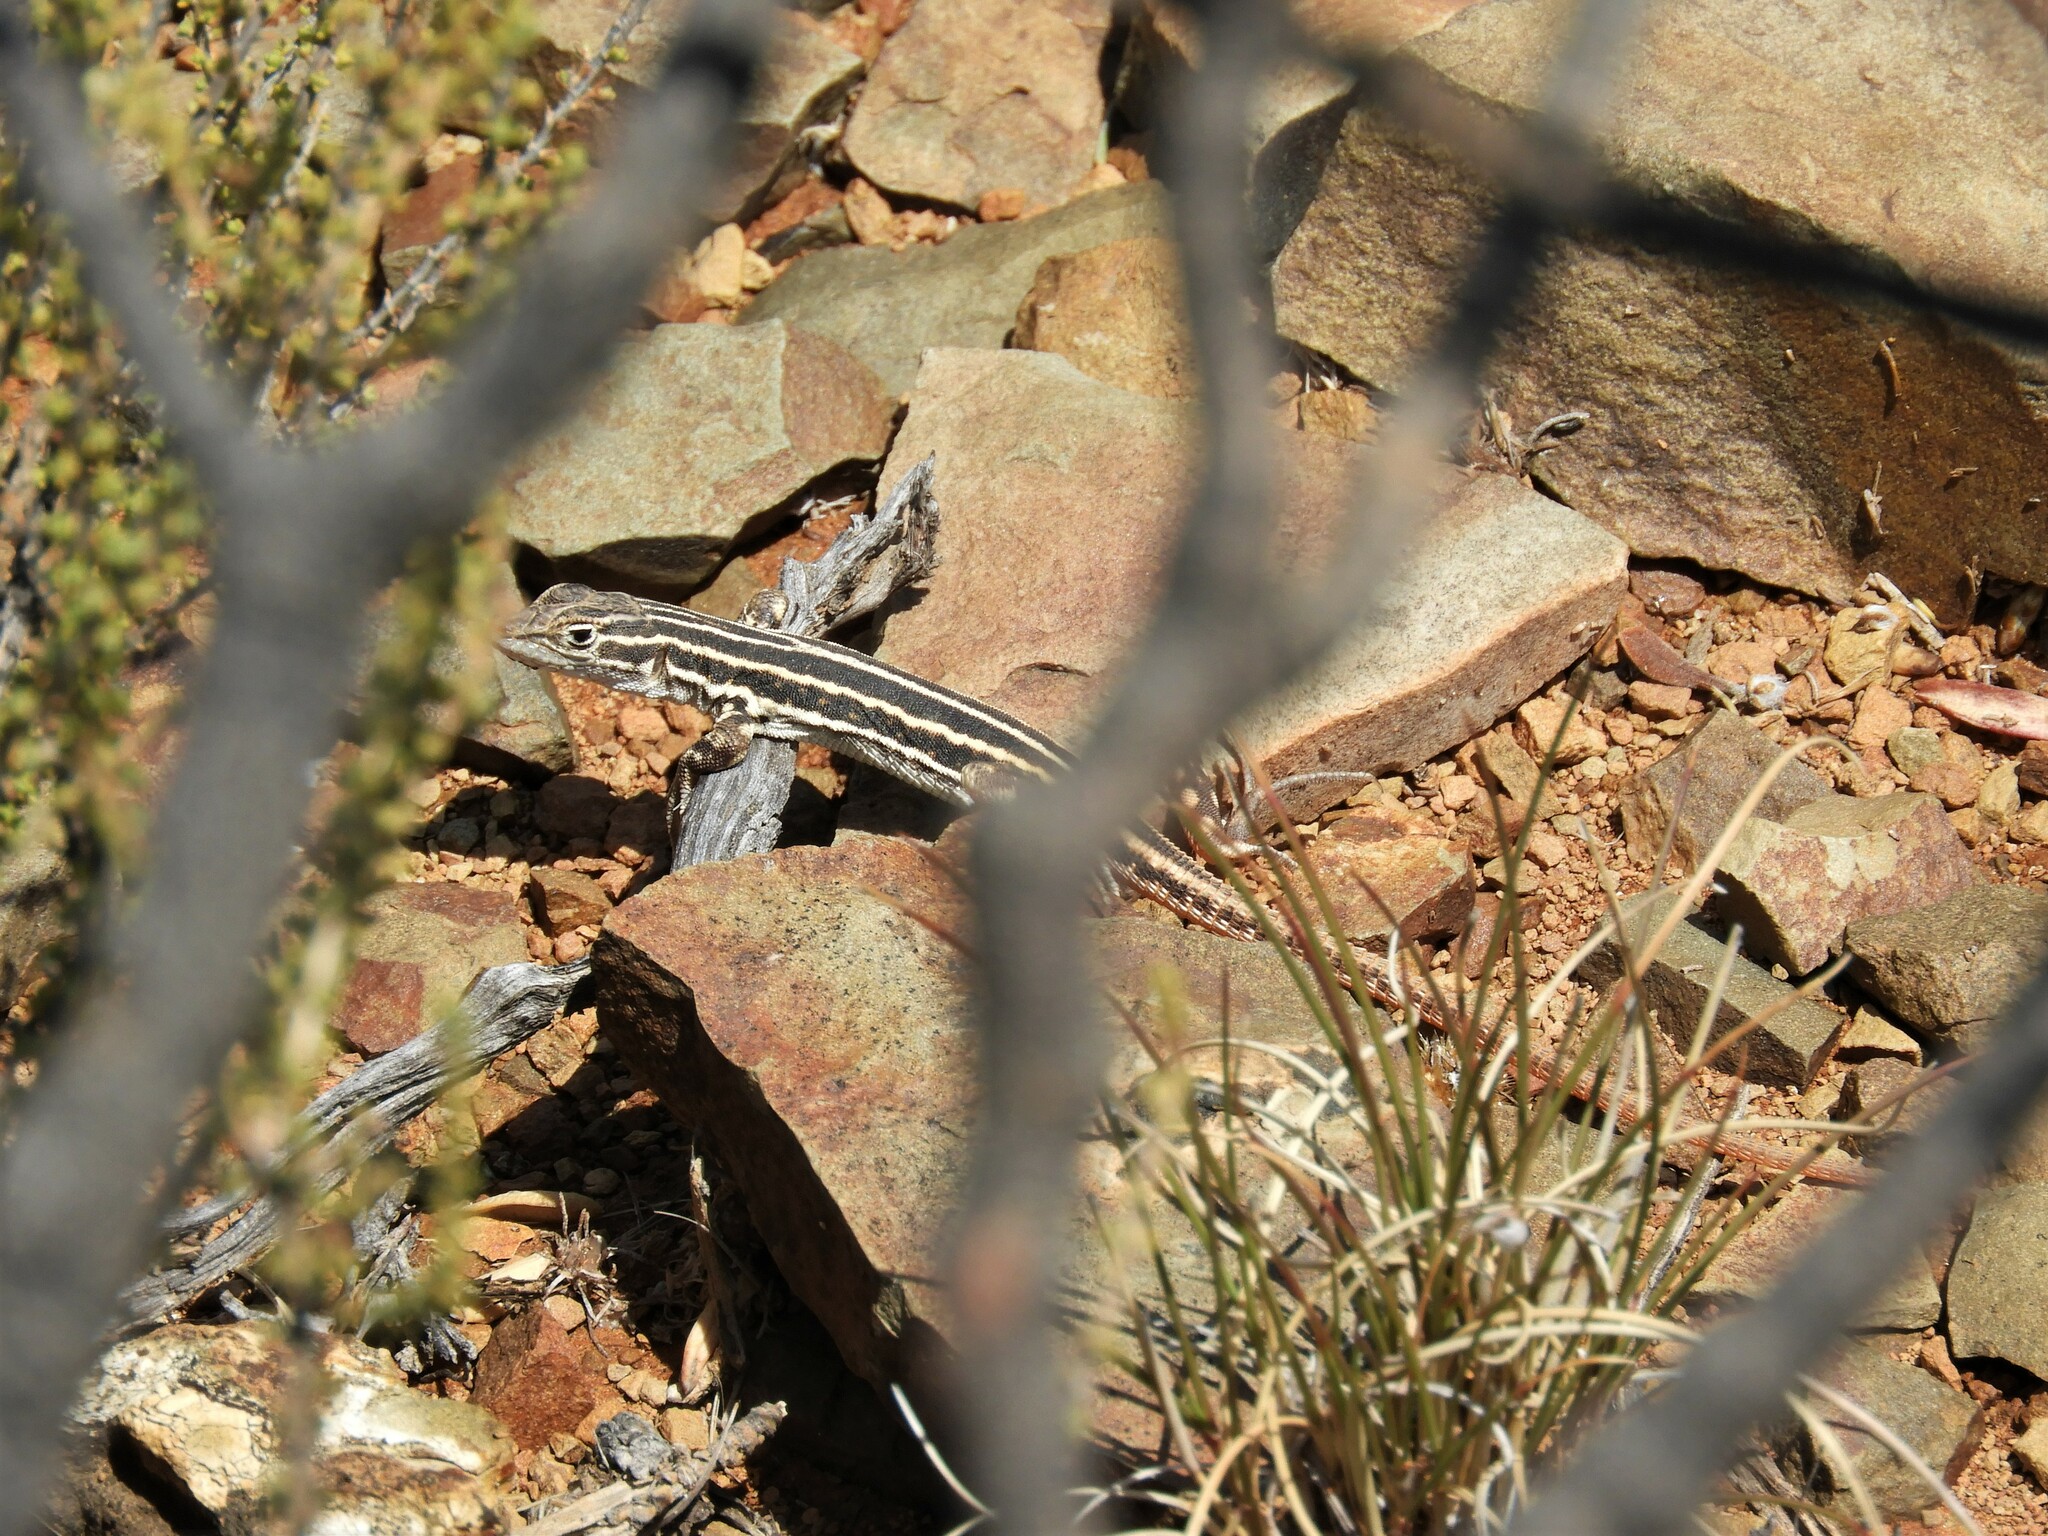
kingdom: Animalia
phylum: Chordata
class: Squamata
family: Lacertidae
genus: Pedioplanis
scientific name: Pedioplanis laticeps
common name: Karoo sand lizard
